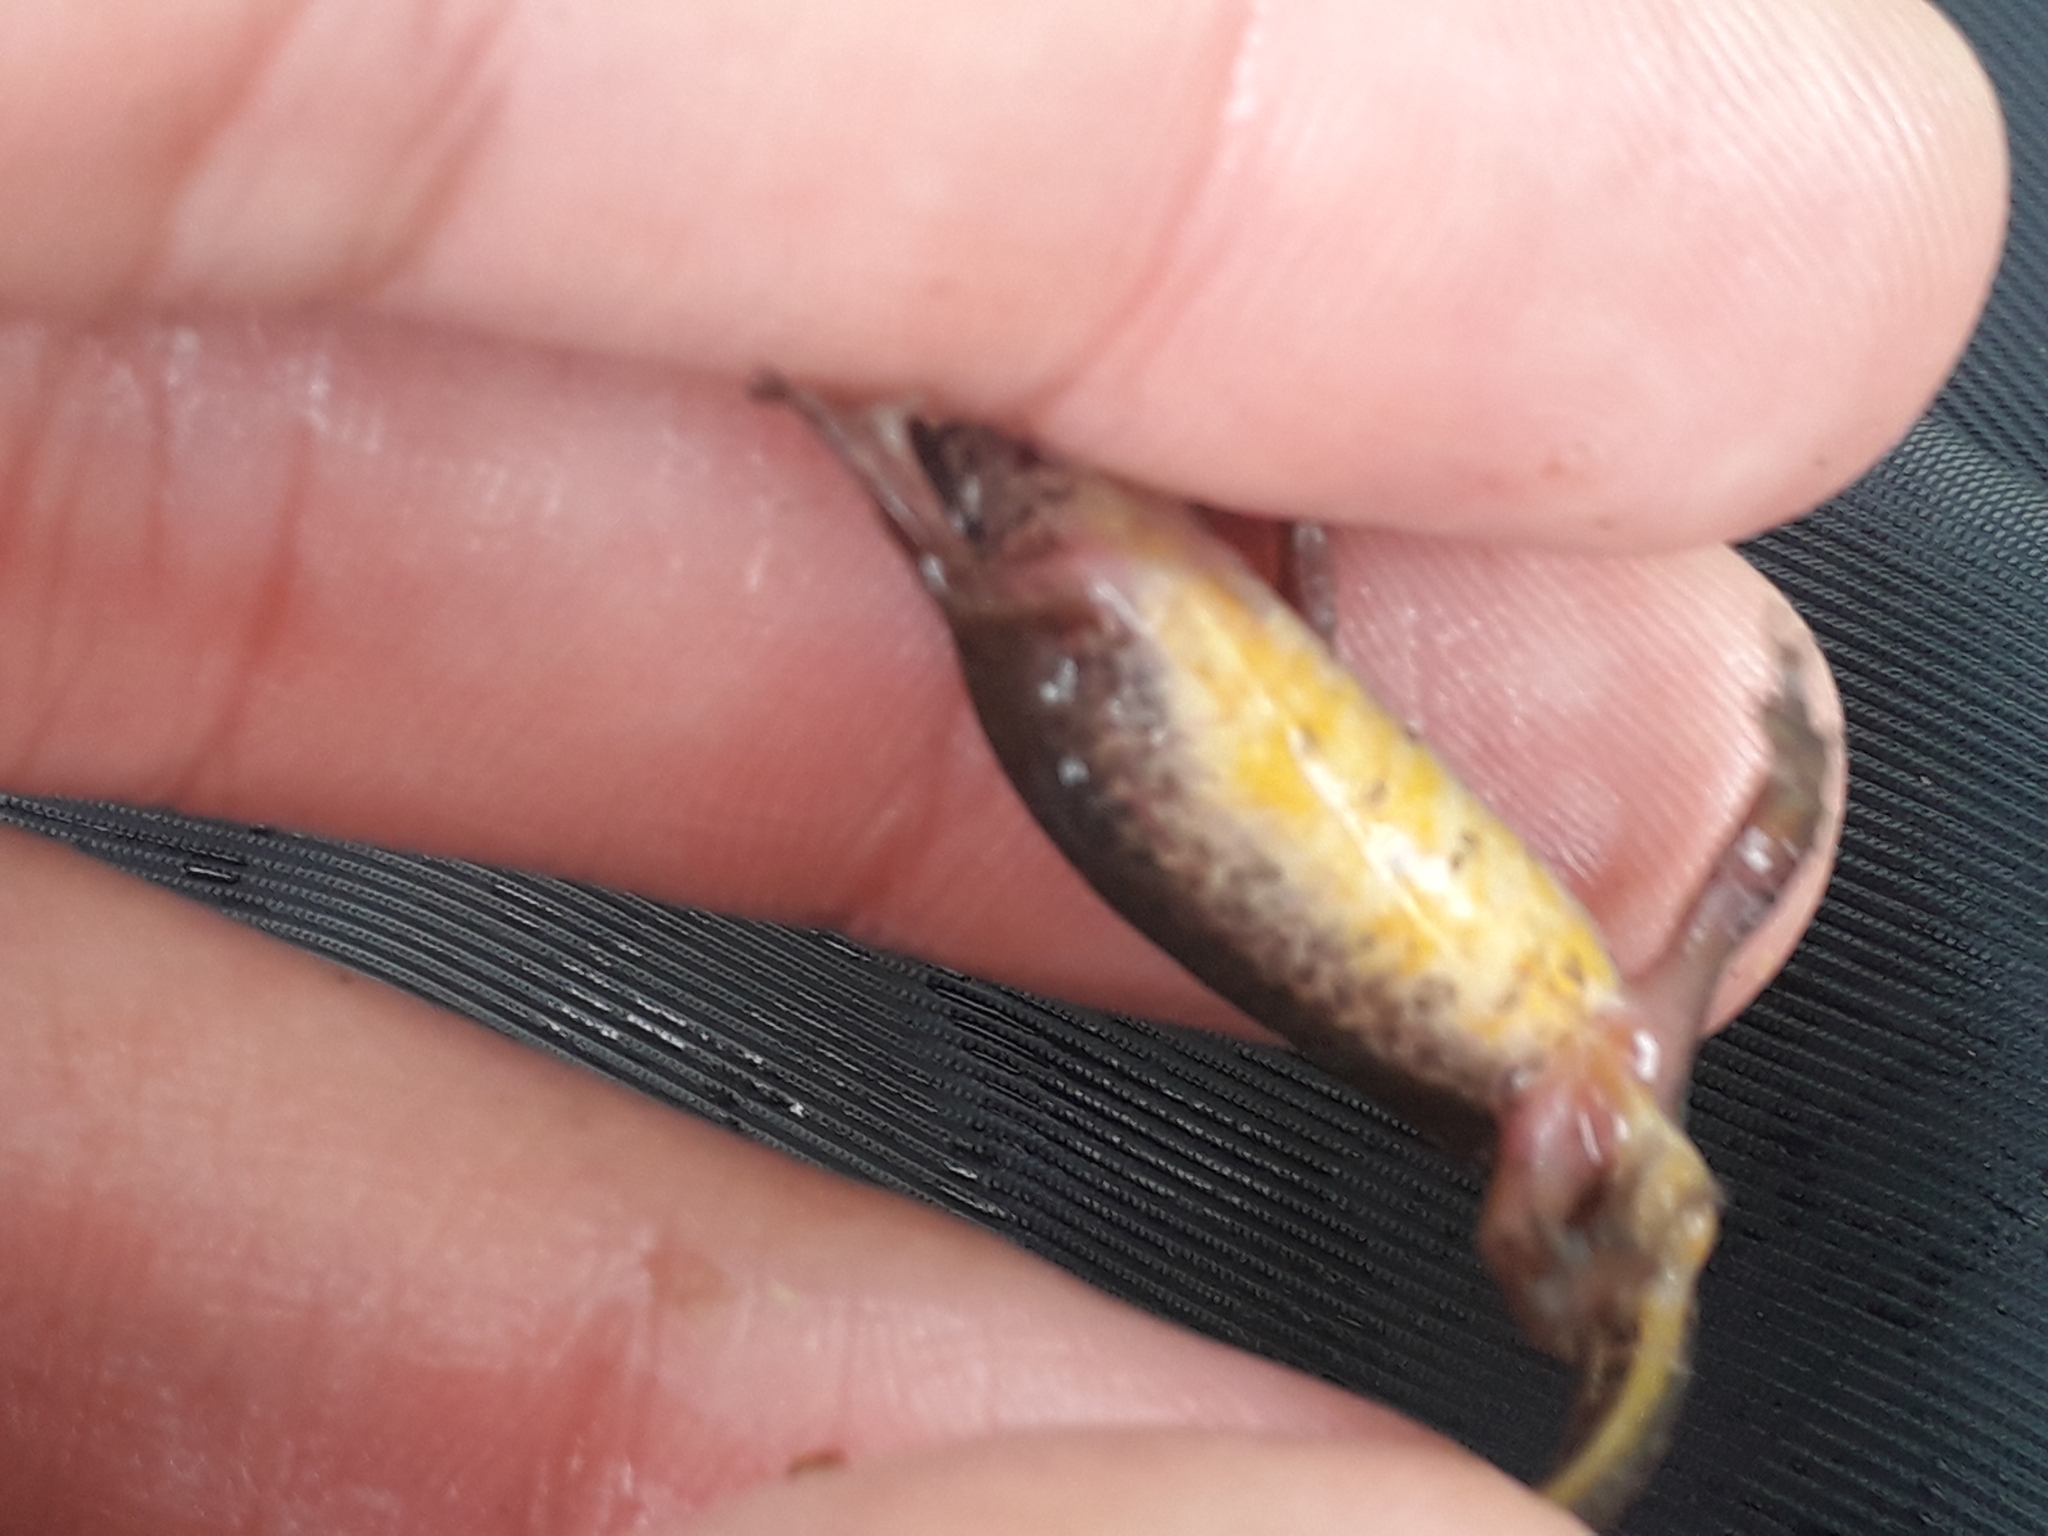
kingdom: Animalia
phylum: Chordata
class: Amphibia
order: Caudata
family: Salamandridae
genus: Lissotriton
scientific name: Lissotriton helveticus
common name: Palmate newt
